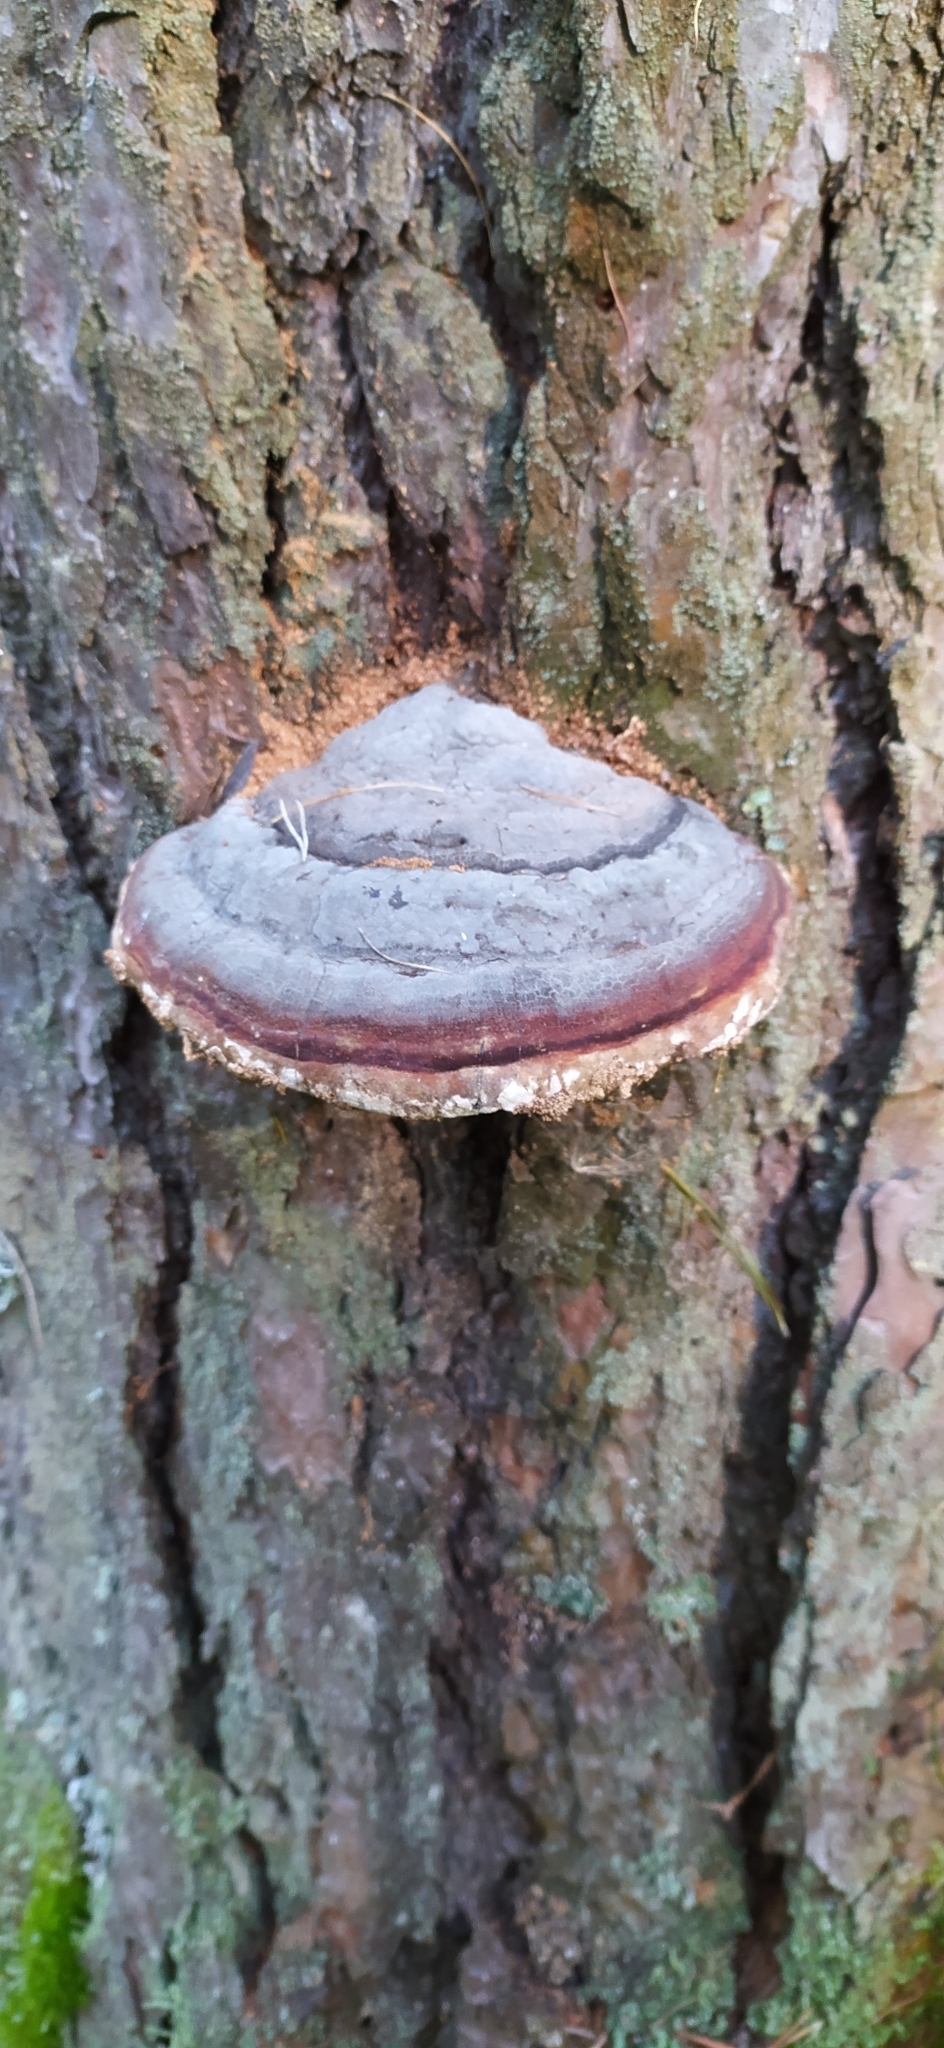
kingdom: Fungi
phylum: Basidiomycota
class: Agaricomycetes
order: Polyporales
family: Fomitopsidaceae
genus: Fomitopsis
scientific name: Fomitopsis pinicola
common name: Red-belted bracket
